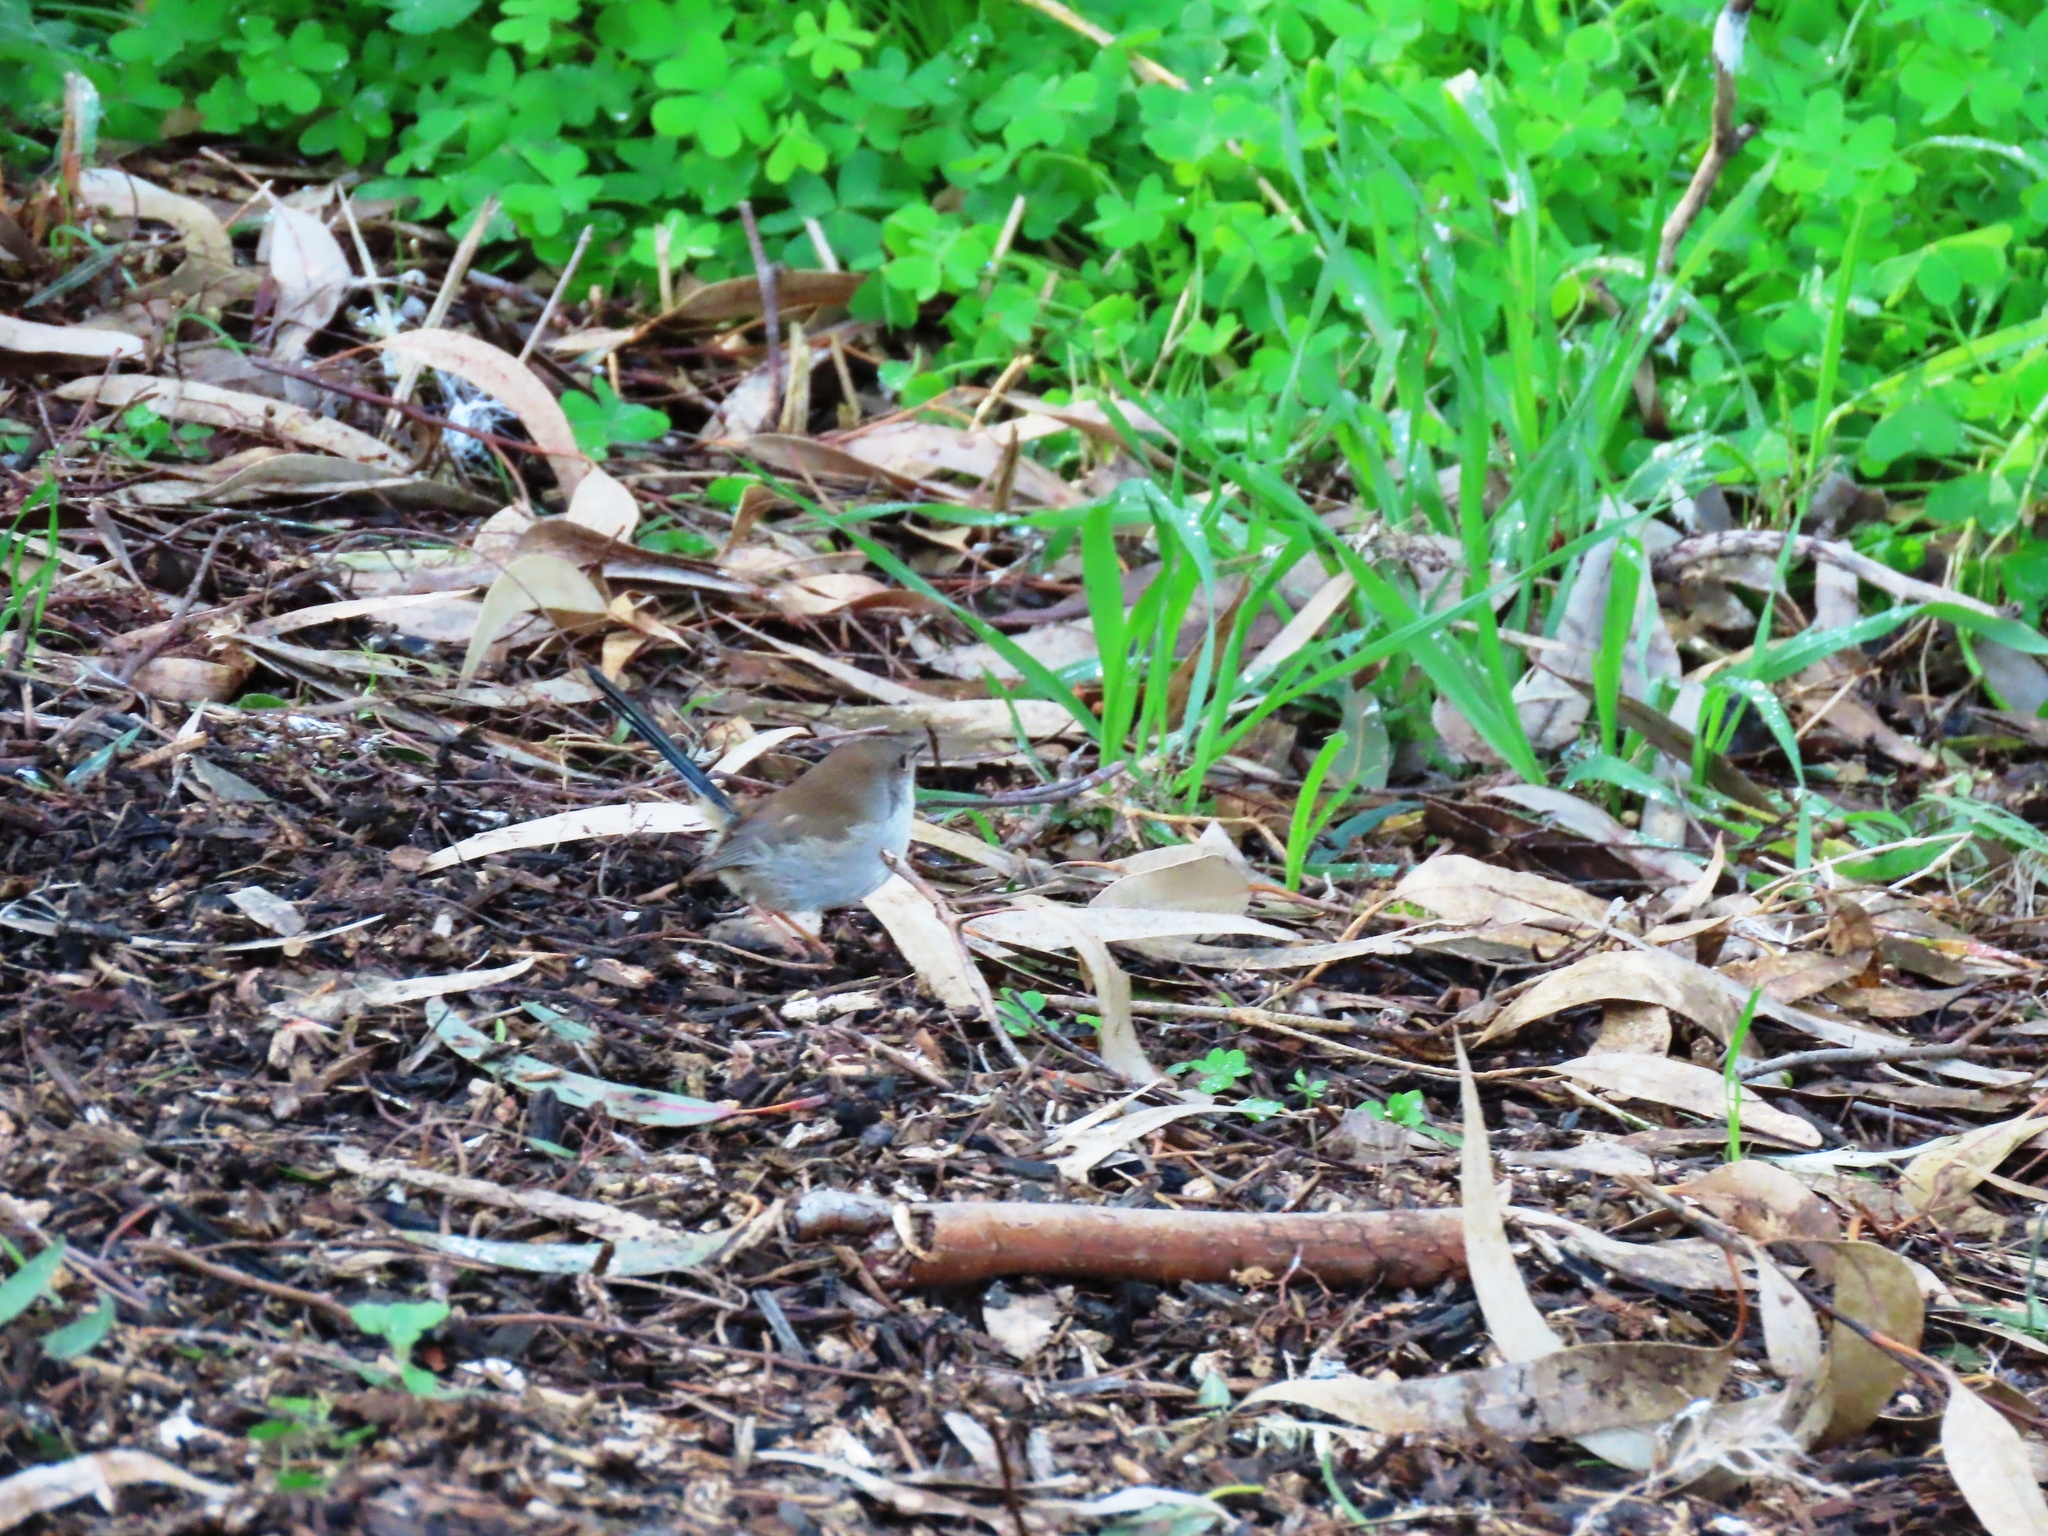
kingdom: Animalia
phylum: Chordata
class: Aves
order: Passeriformes
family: Maluridae
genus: Malurus
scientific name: Malurus cyaneus
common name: Superb fairywren
